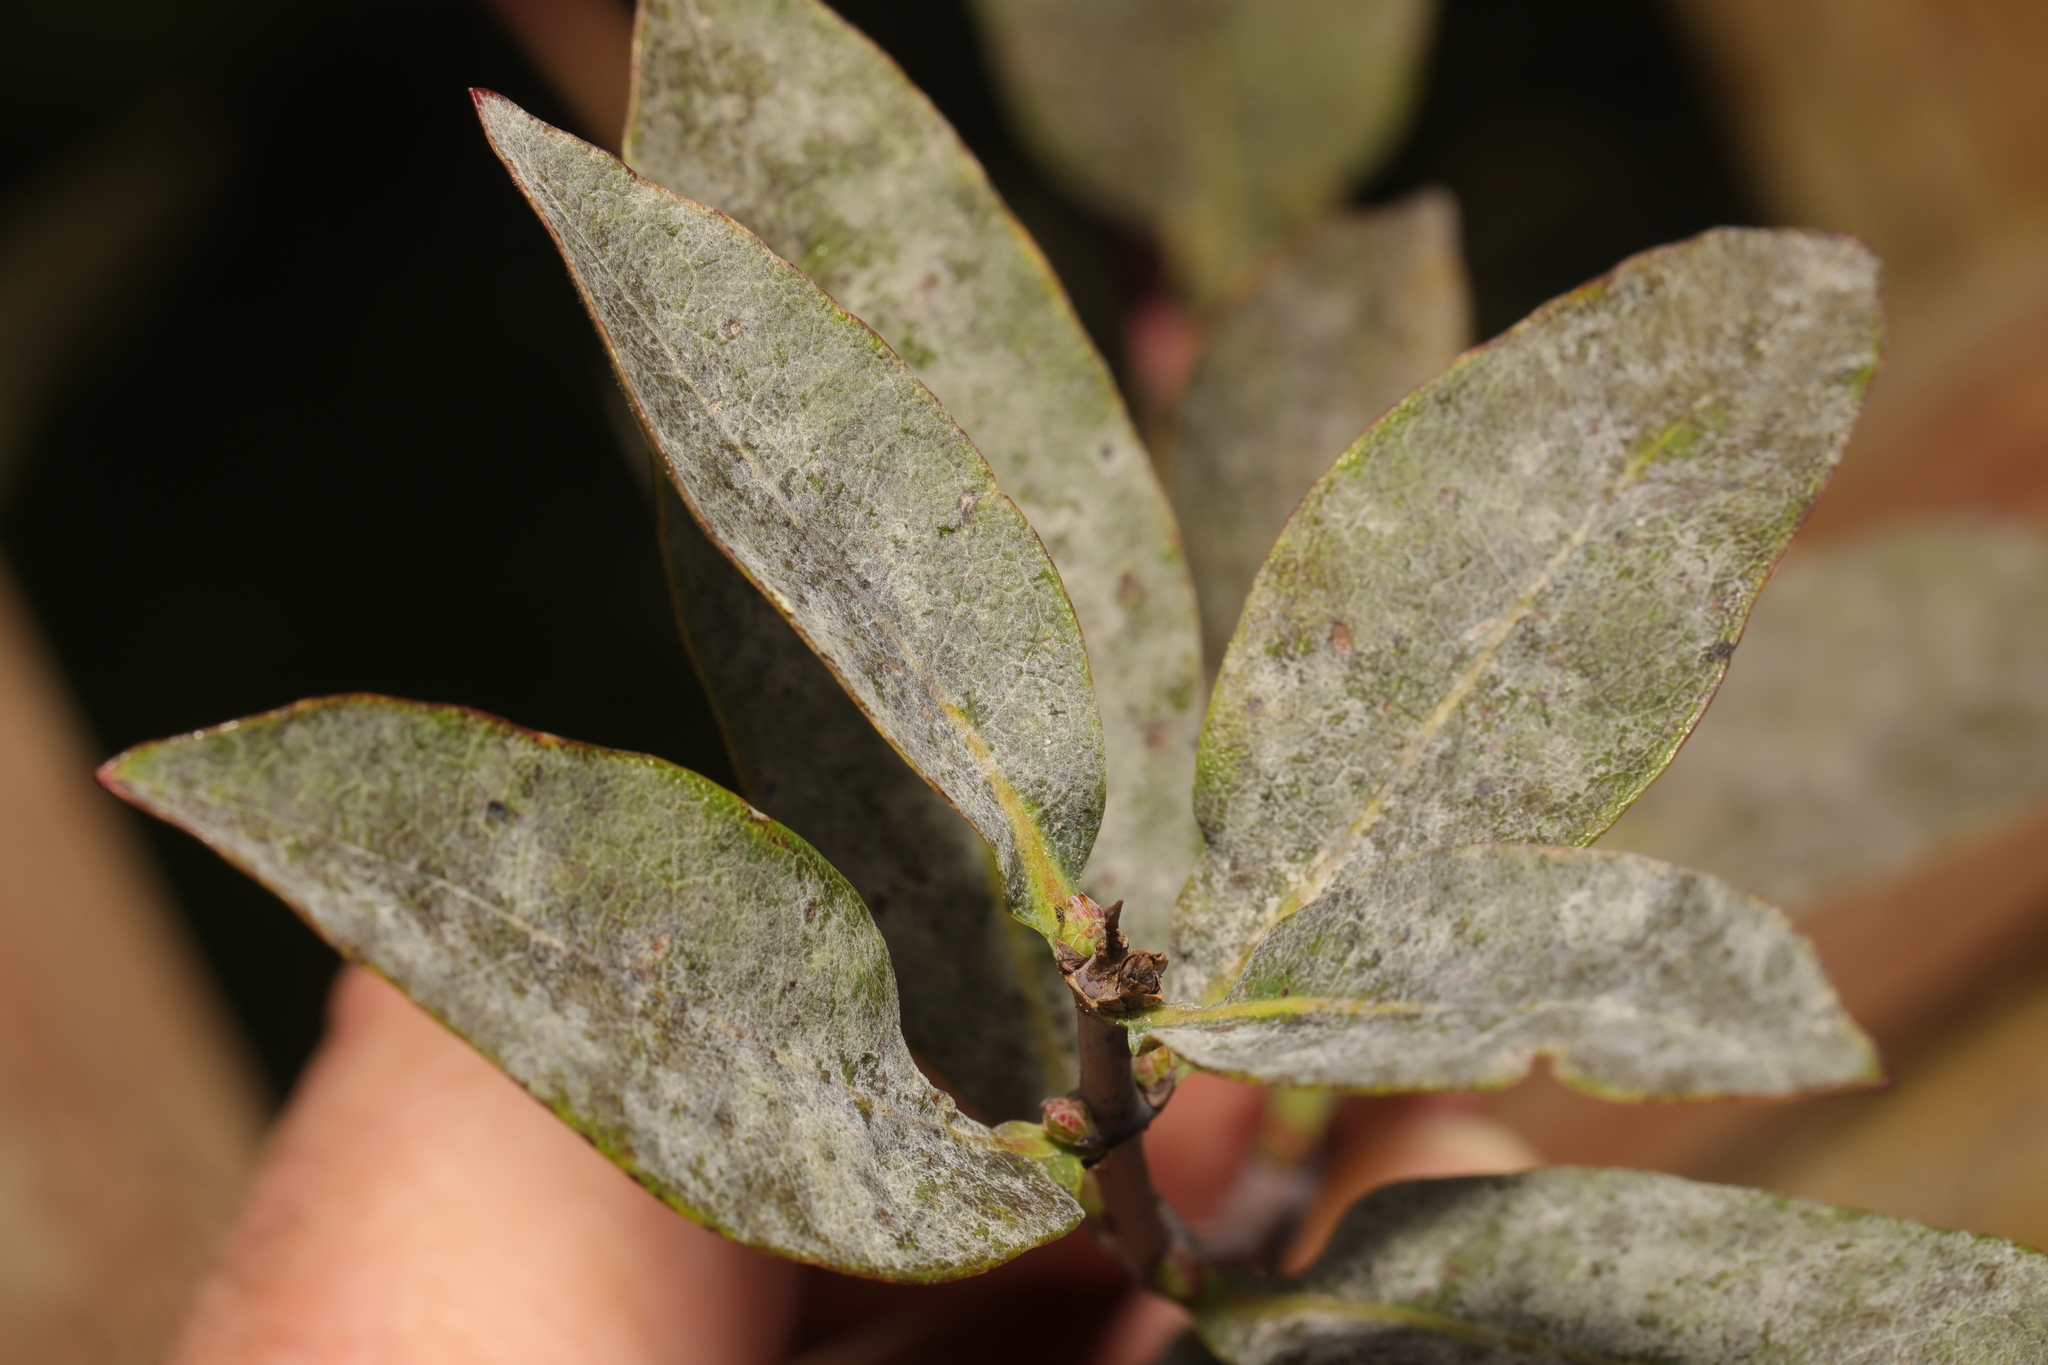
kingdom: Fungi
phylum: Ascomycota
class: Leotiomycetes
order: Helotiales
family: Erysiphaceae
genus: Erysiphe
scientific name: Erysiphe lonicerae
